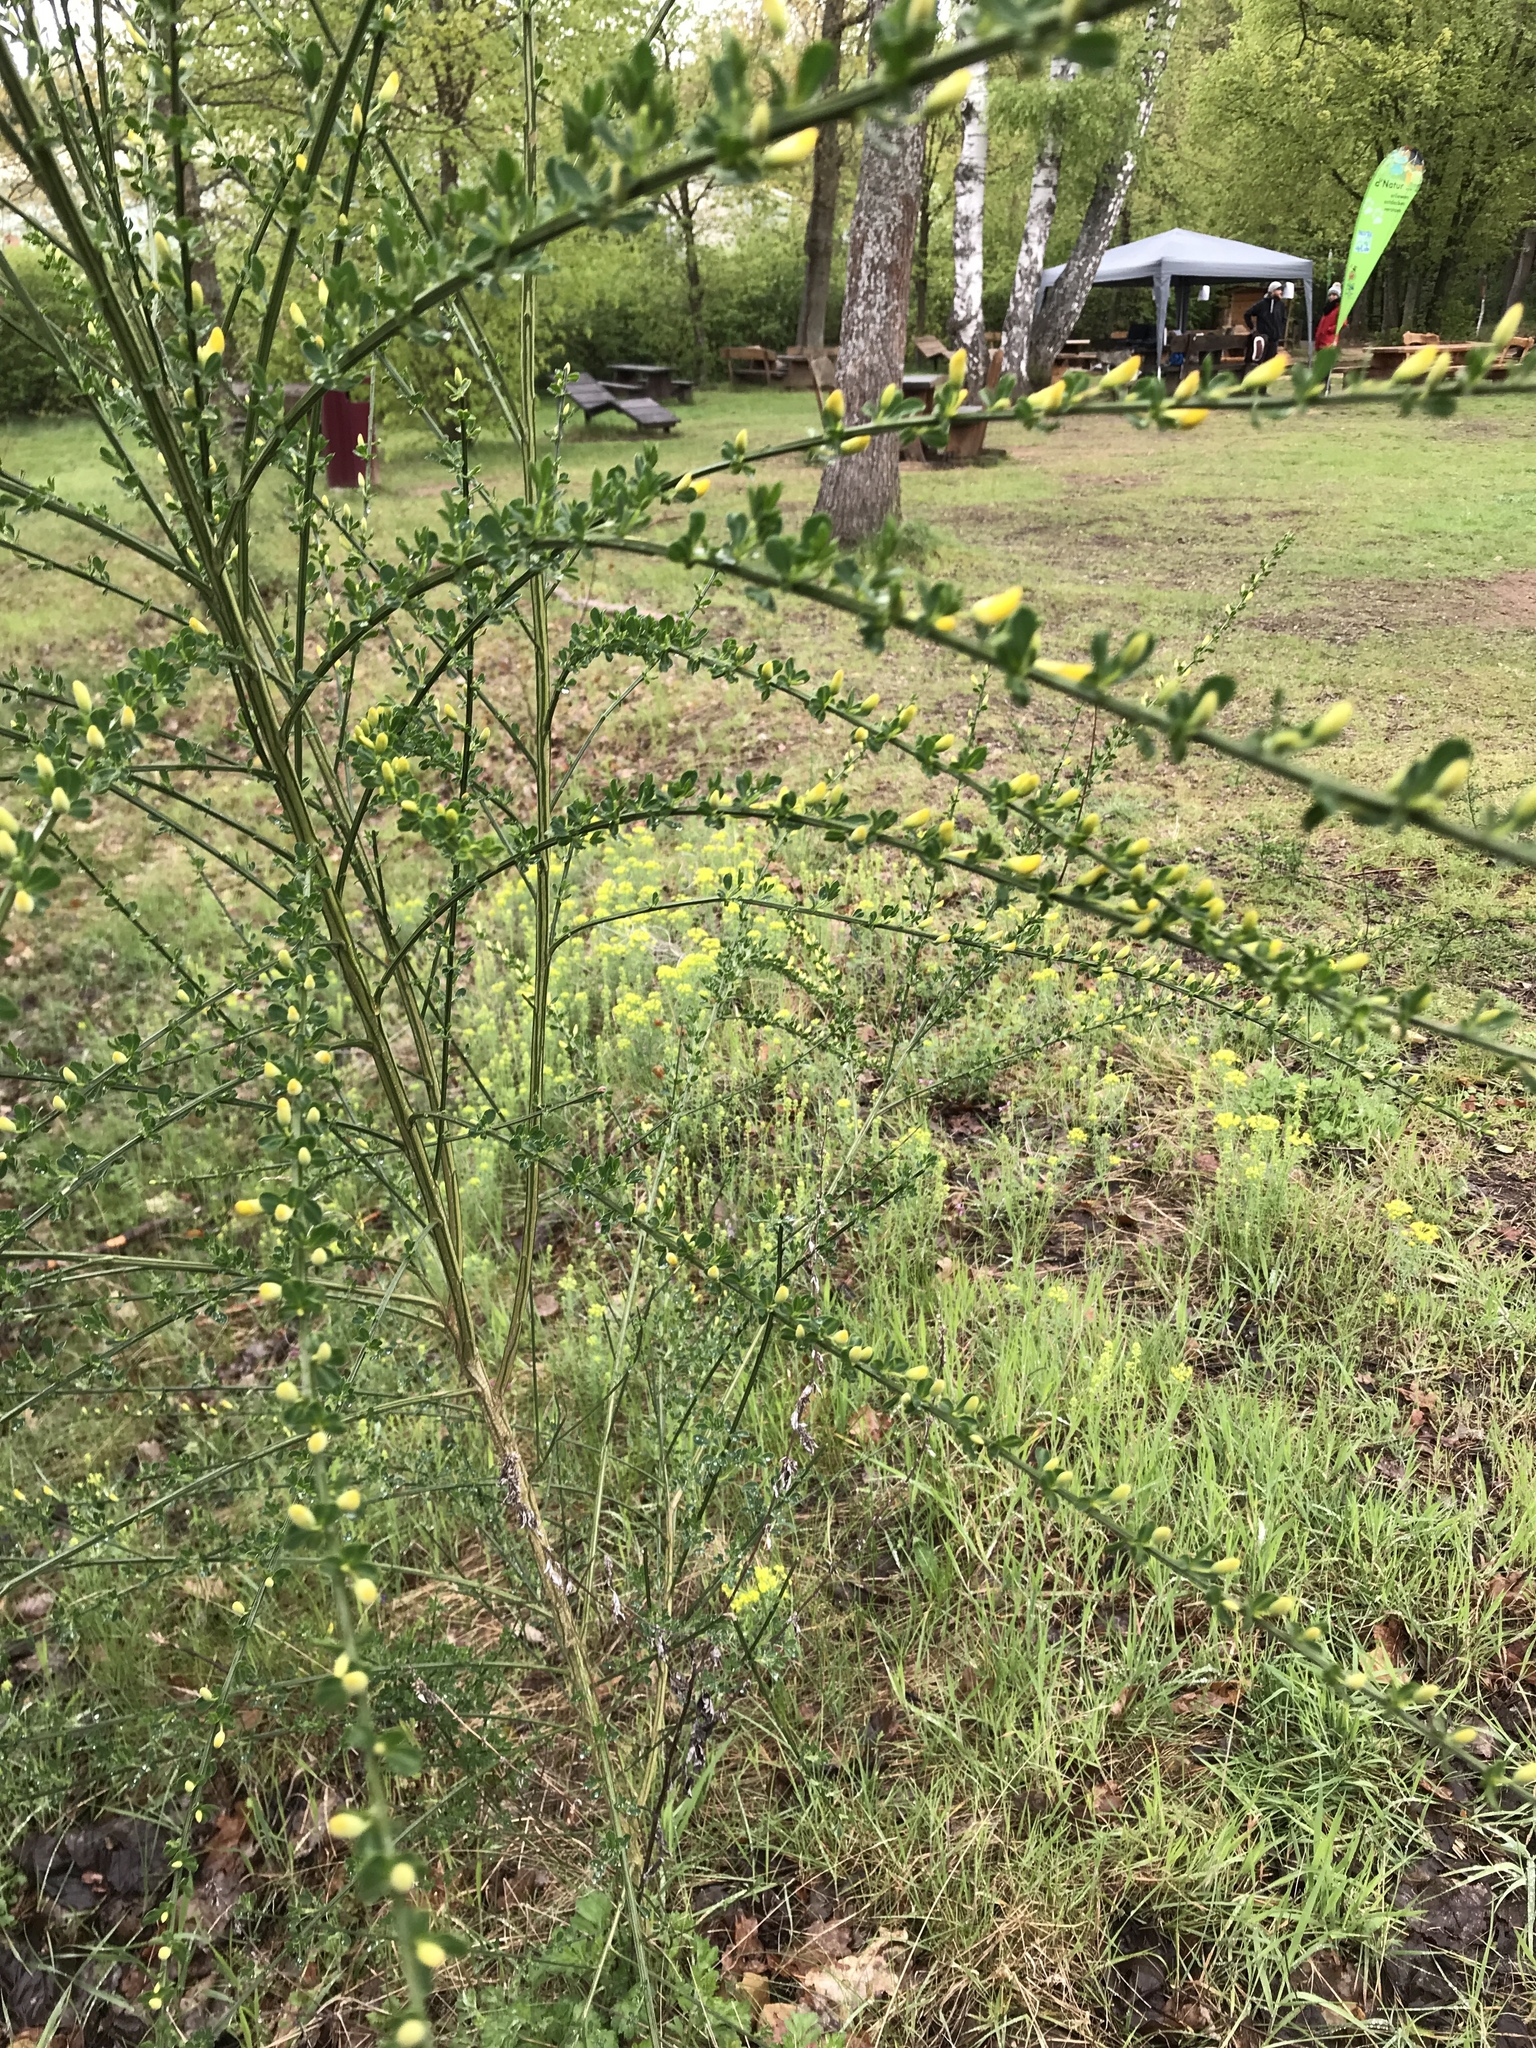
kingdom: Plantae
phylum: Tracheophyta
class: Magnoliopsida
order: Fabales
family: Fabaceae
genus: Cytisus
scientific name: Cytisus scoparius
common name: Scotch broom
